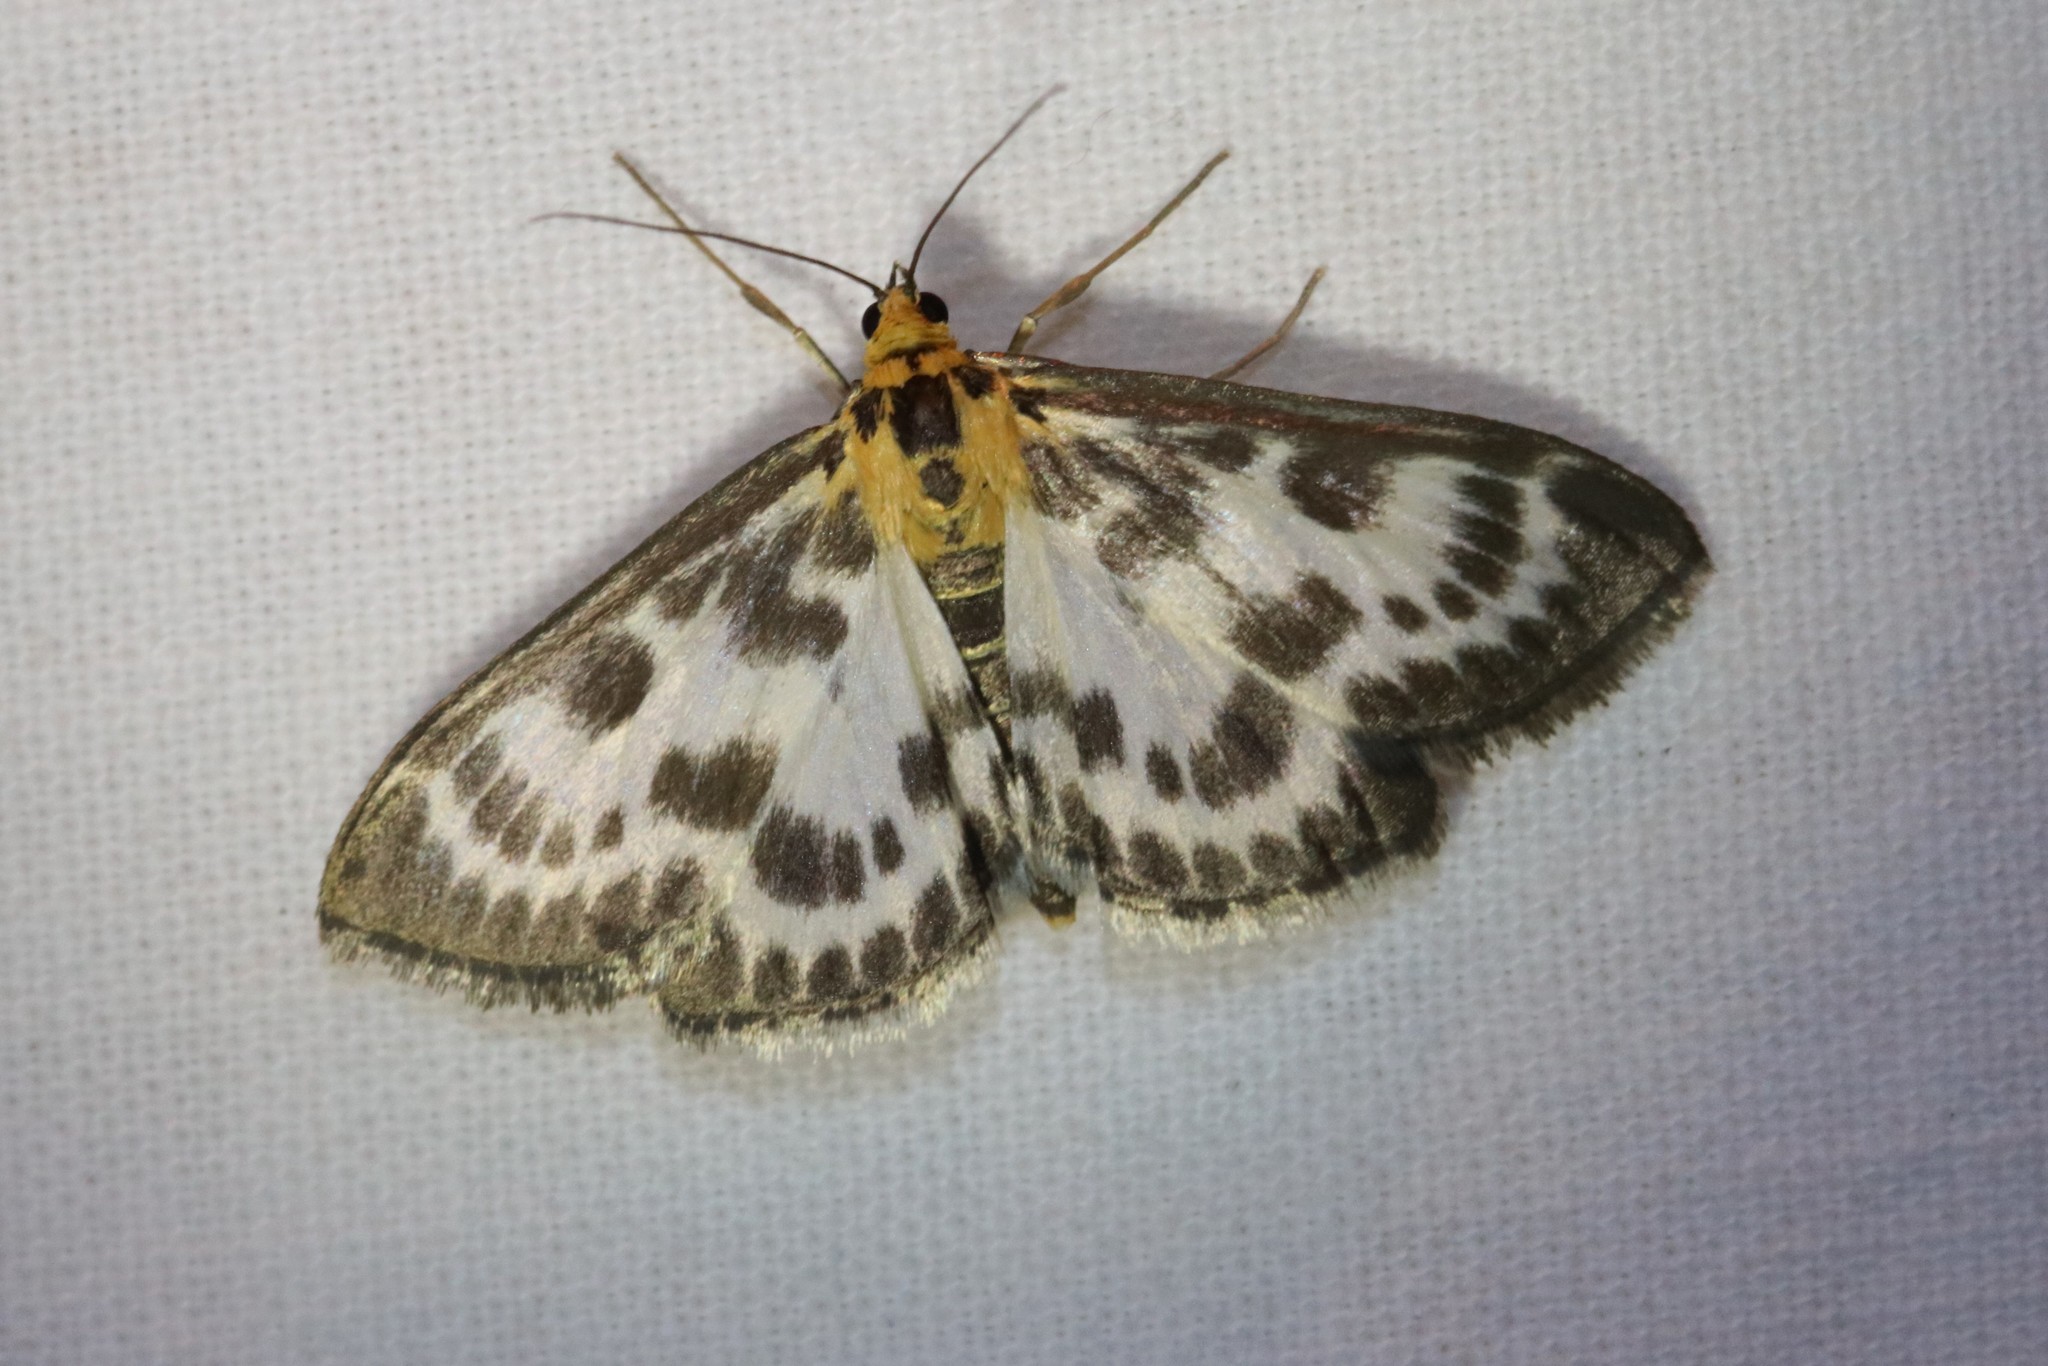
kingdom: Animalia
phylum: Arthropoda
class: Insecta
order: Lepidoptera
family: Crambidae
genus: Anania
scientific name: Anania hortulata
